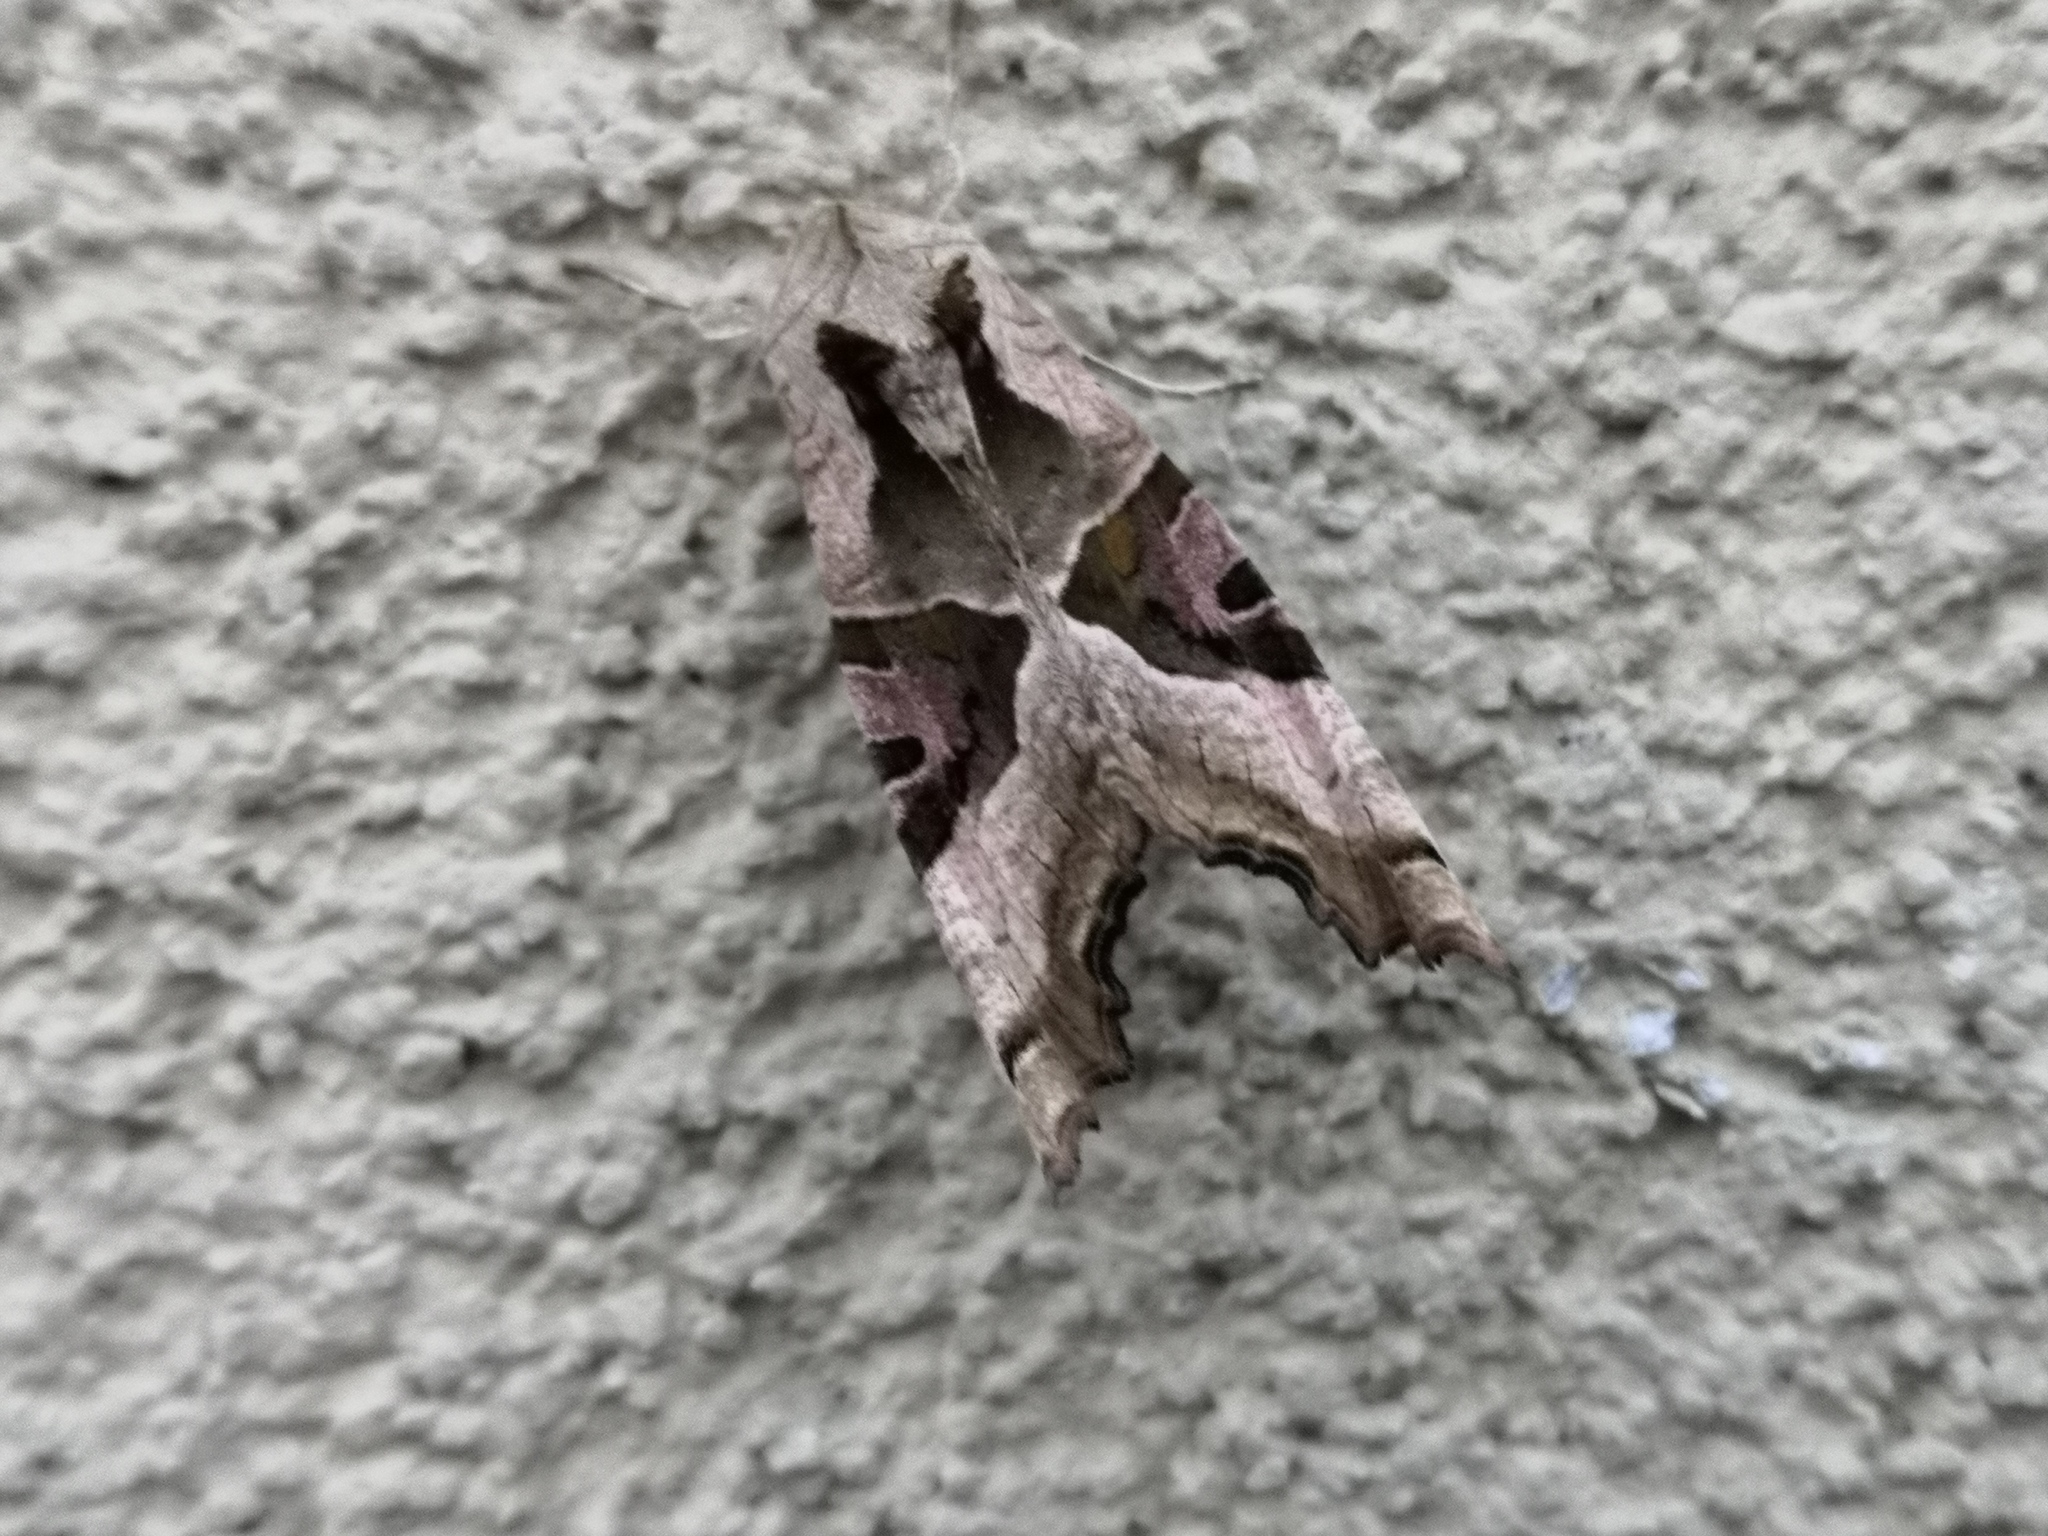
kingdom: Animalia
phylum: Arthropoda
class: Insecta
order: Lepidoptera
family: Noctuidae
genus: Phlogophora
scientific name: Phlogophora meticulosa
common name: Angle shades
